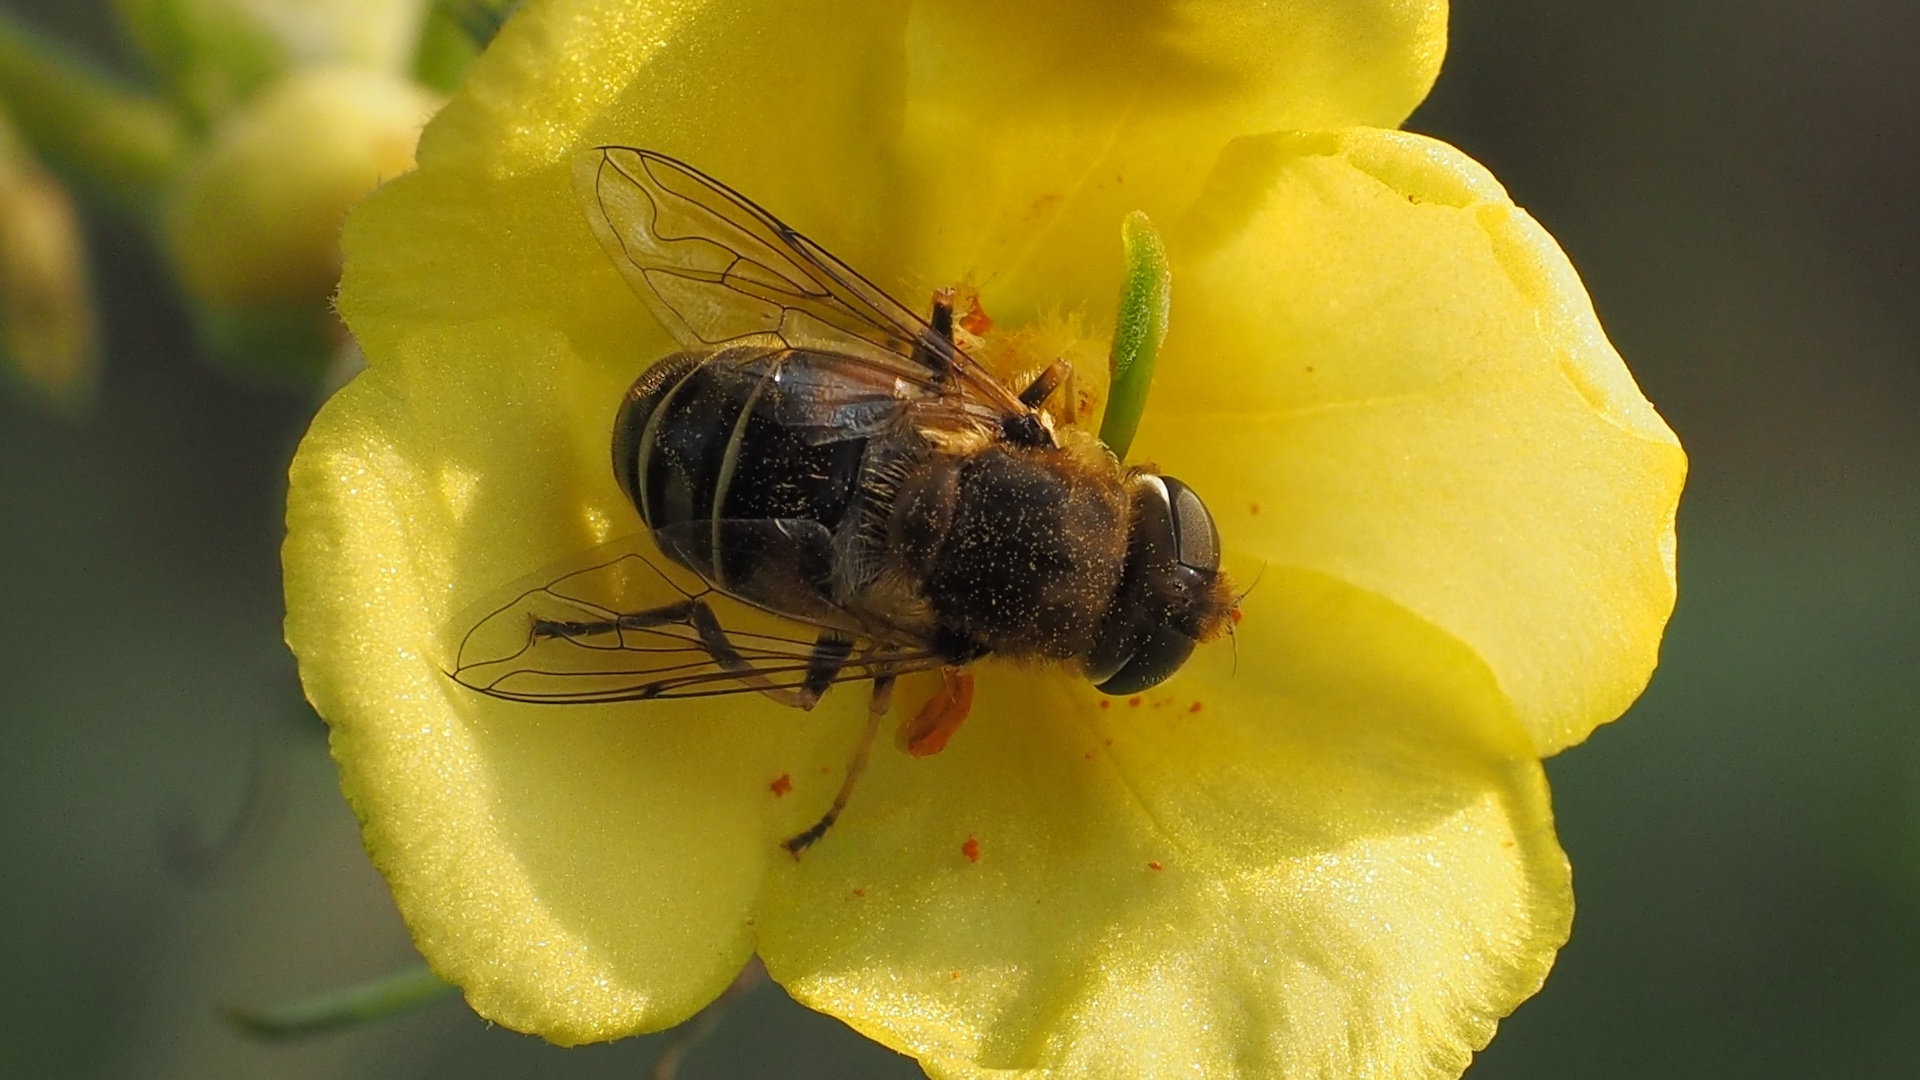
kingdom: Animalia
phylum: Arthropoda
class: Insecta
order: Diptera
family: Syrphidae
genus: Eristalis
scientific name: Eristalis nemorum
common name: Orange-spined drone fly
